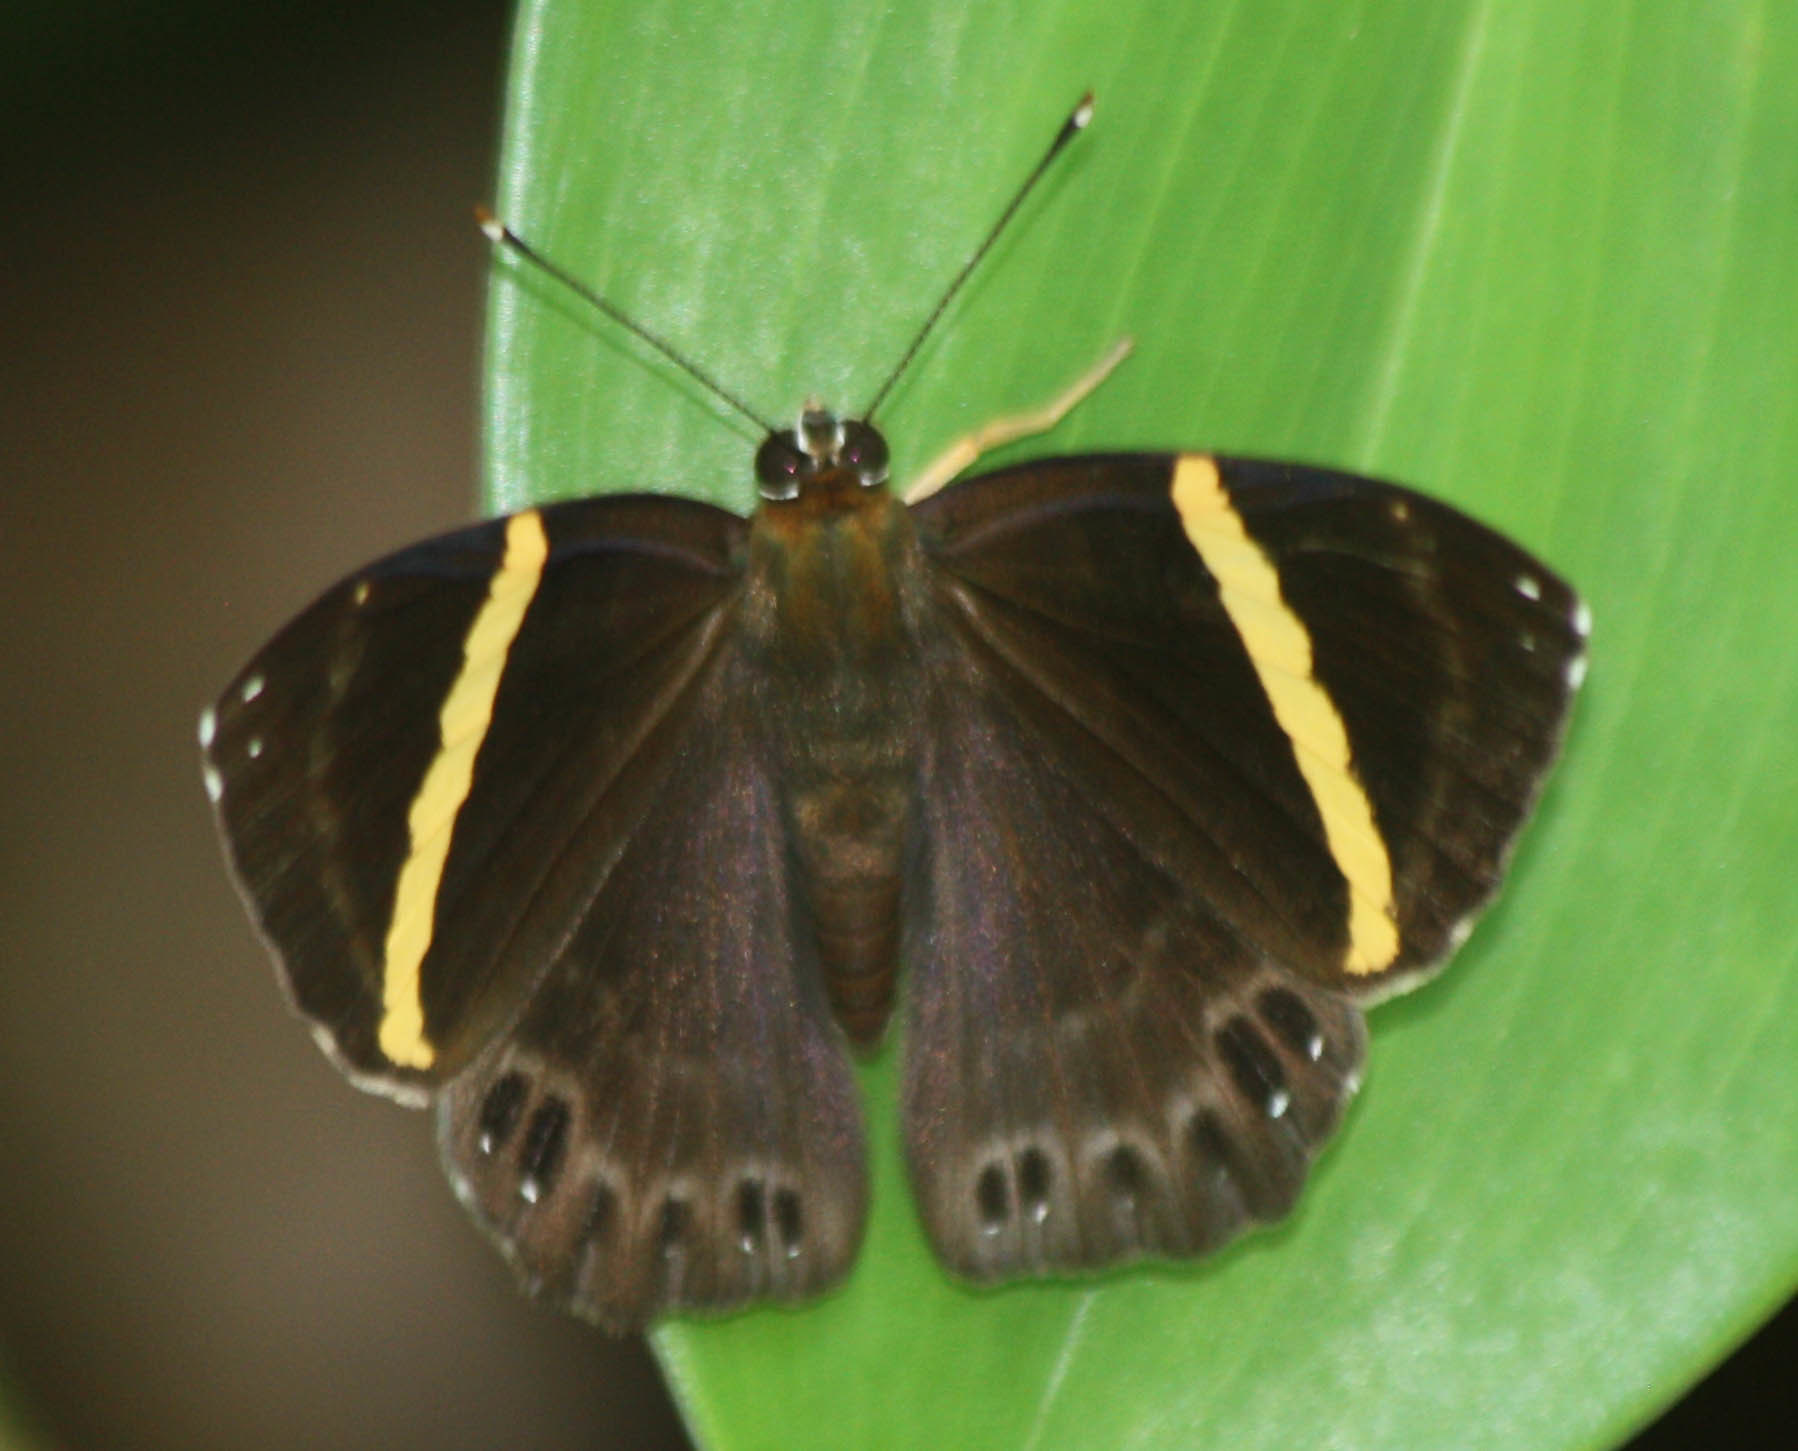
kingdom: Animalia
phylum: Arthropoda
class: Insecta
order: Lepidoptera
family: Lycaenidae
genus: Abisara
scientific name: Abisara fylla
